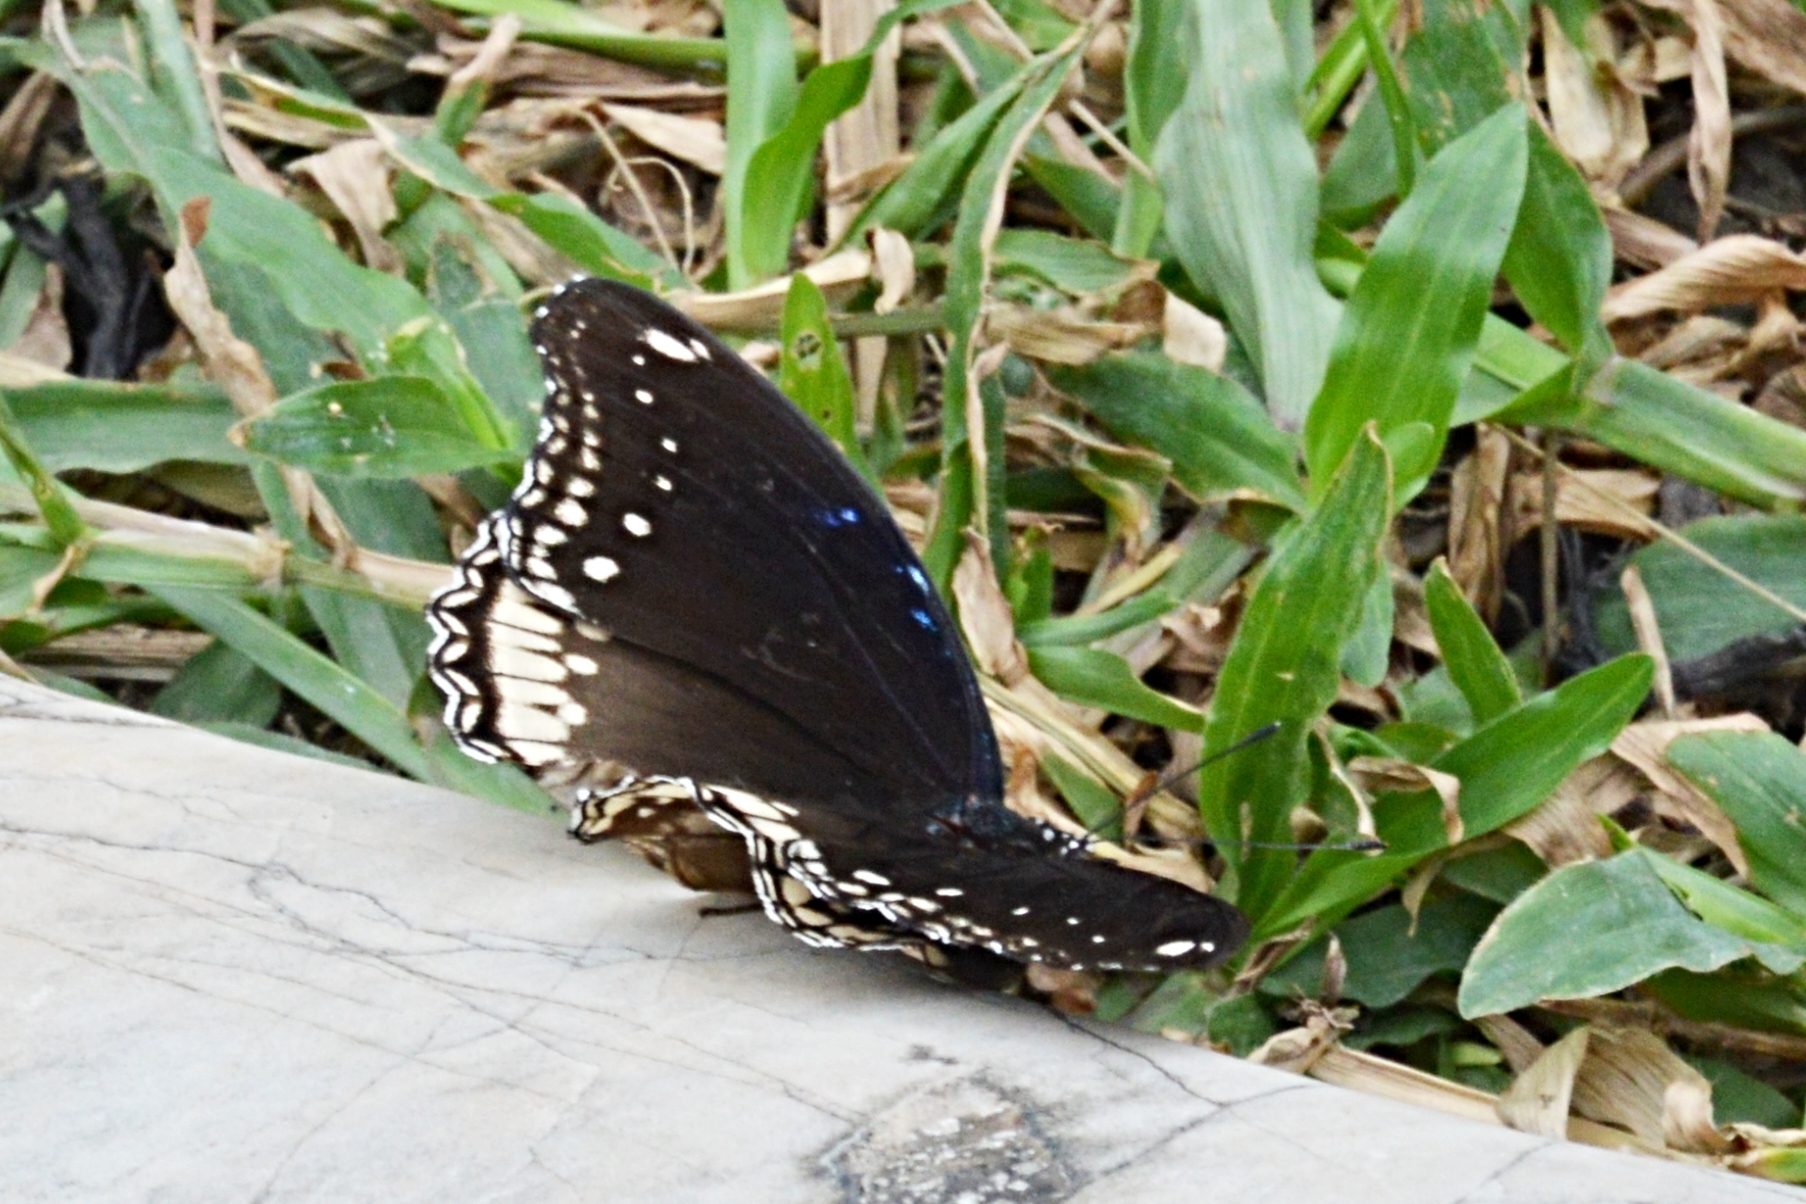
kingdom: Animalia
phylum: Arthropoda
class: Insecta
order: Lepidoptera
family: Nymphalidae
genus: Hypolimnas
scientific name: Hypolimnas bolina
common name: Great eggfly
